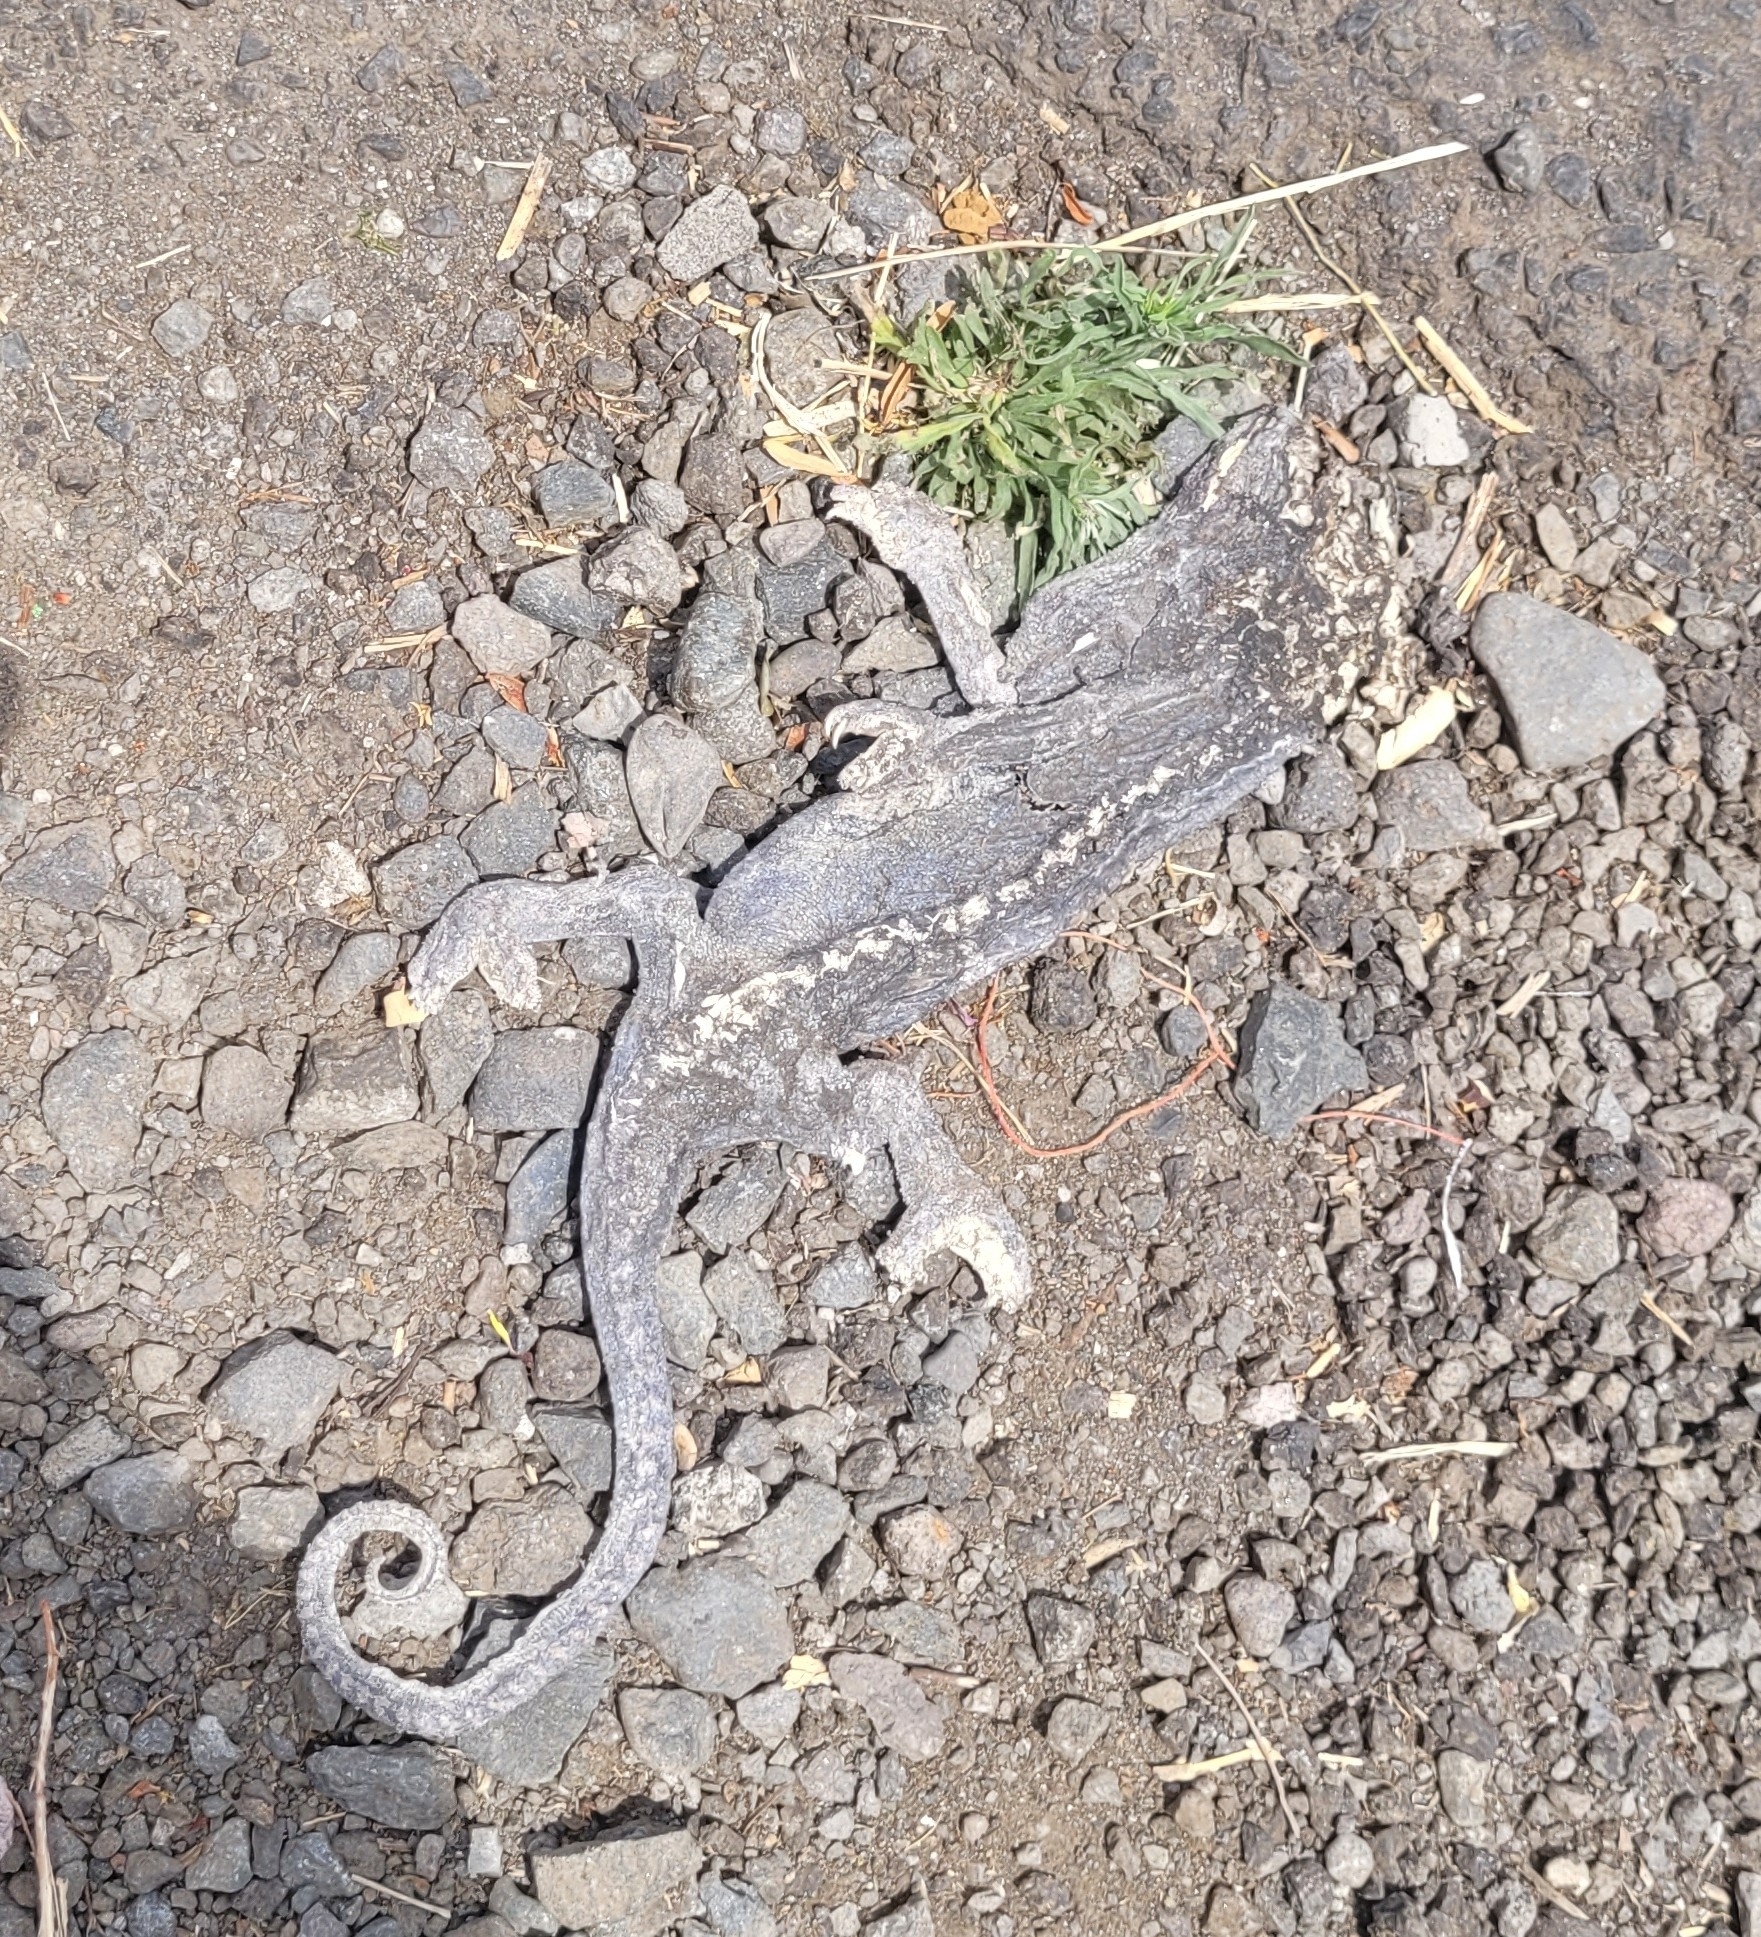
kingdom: Animalia
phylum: Chordata
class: Squamata
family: Chamaeleonidae
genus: Furcifer
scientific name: Furcifer pardalis
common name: Panther chameleon
